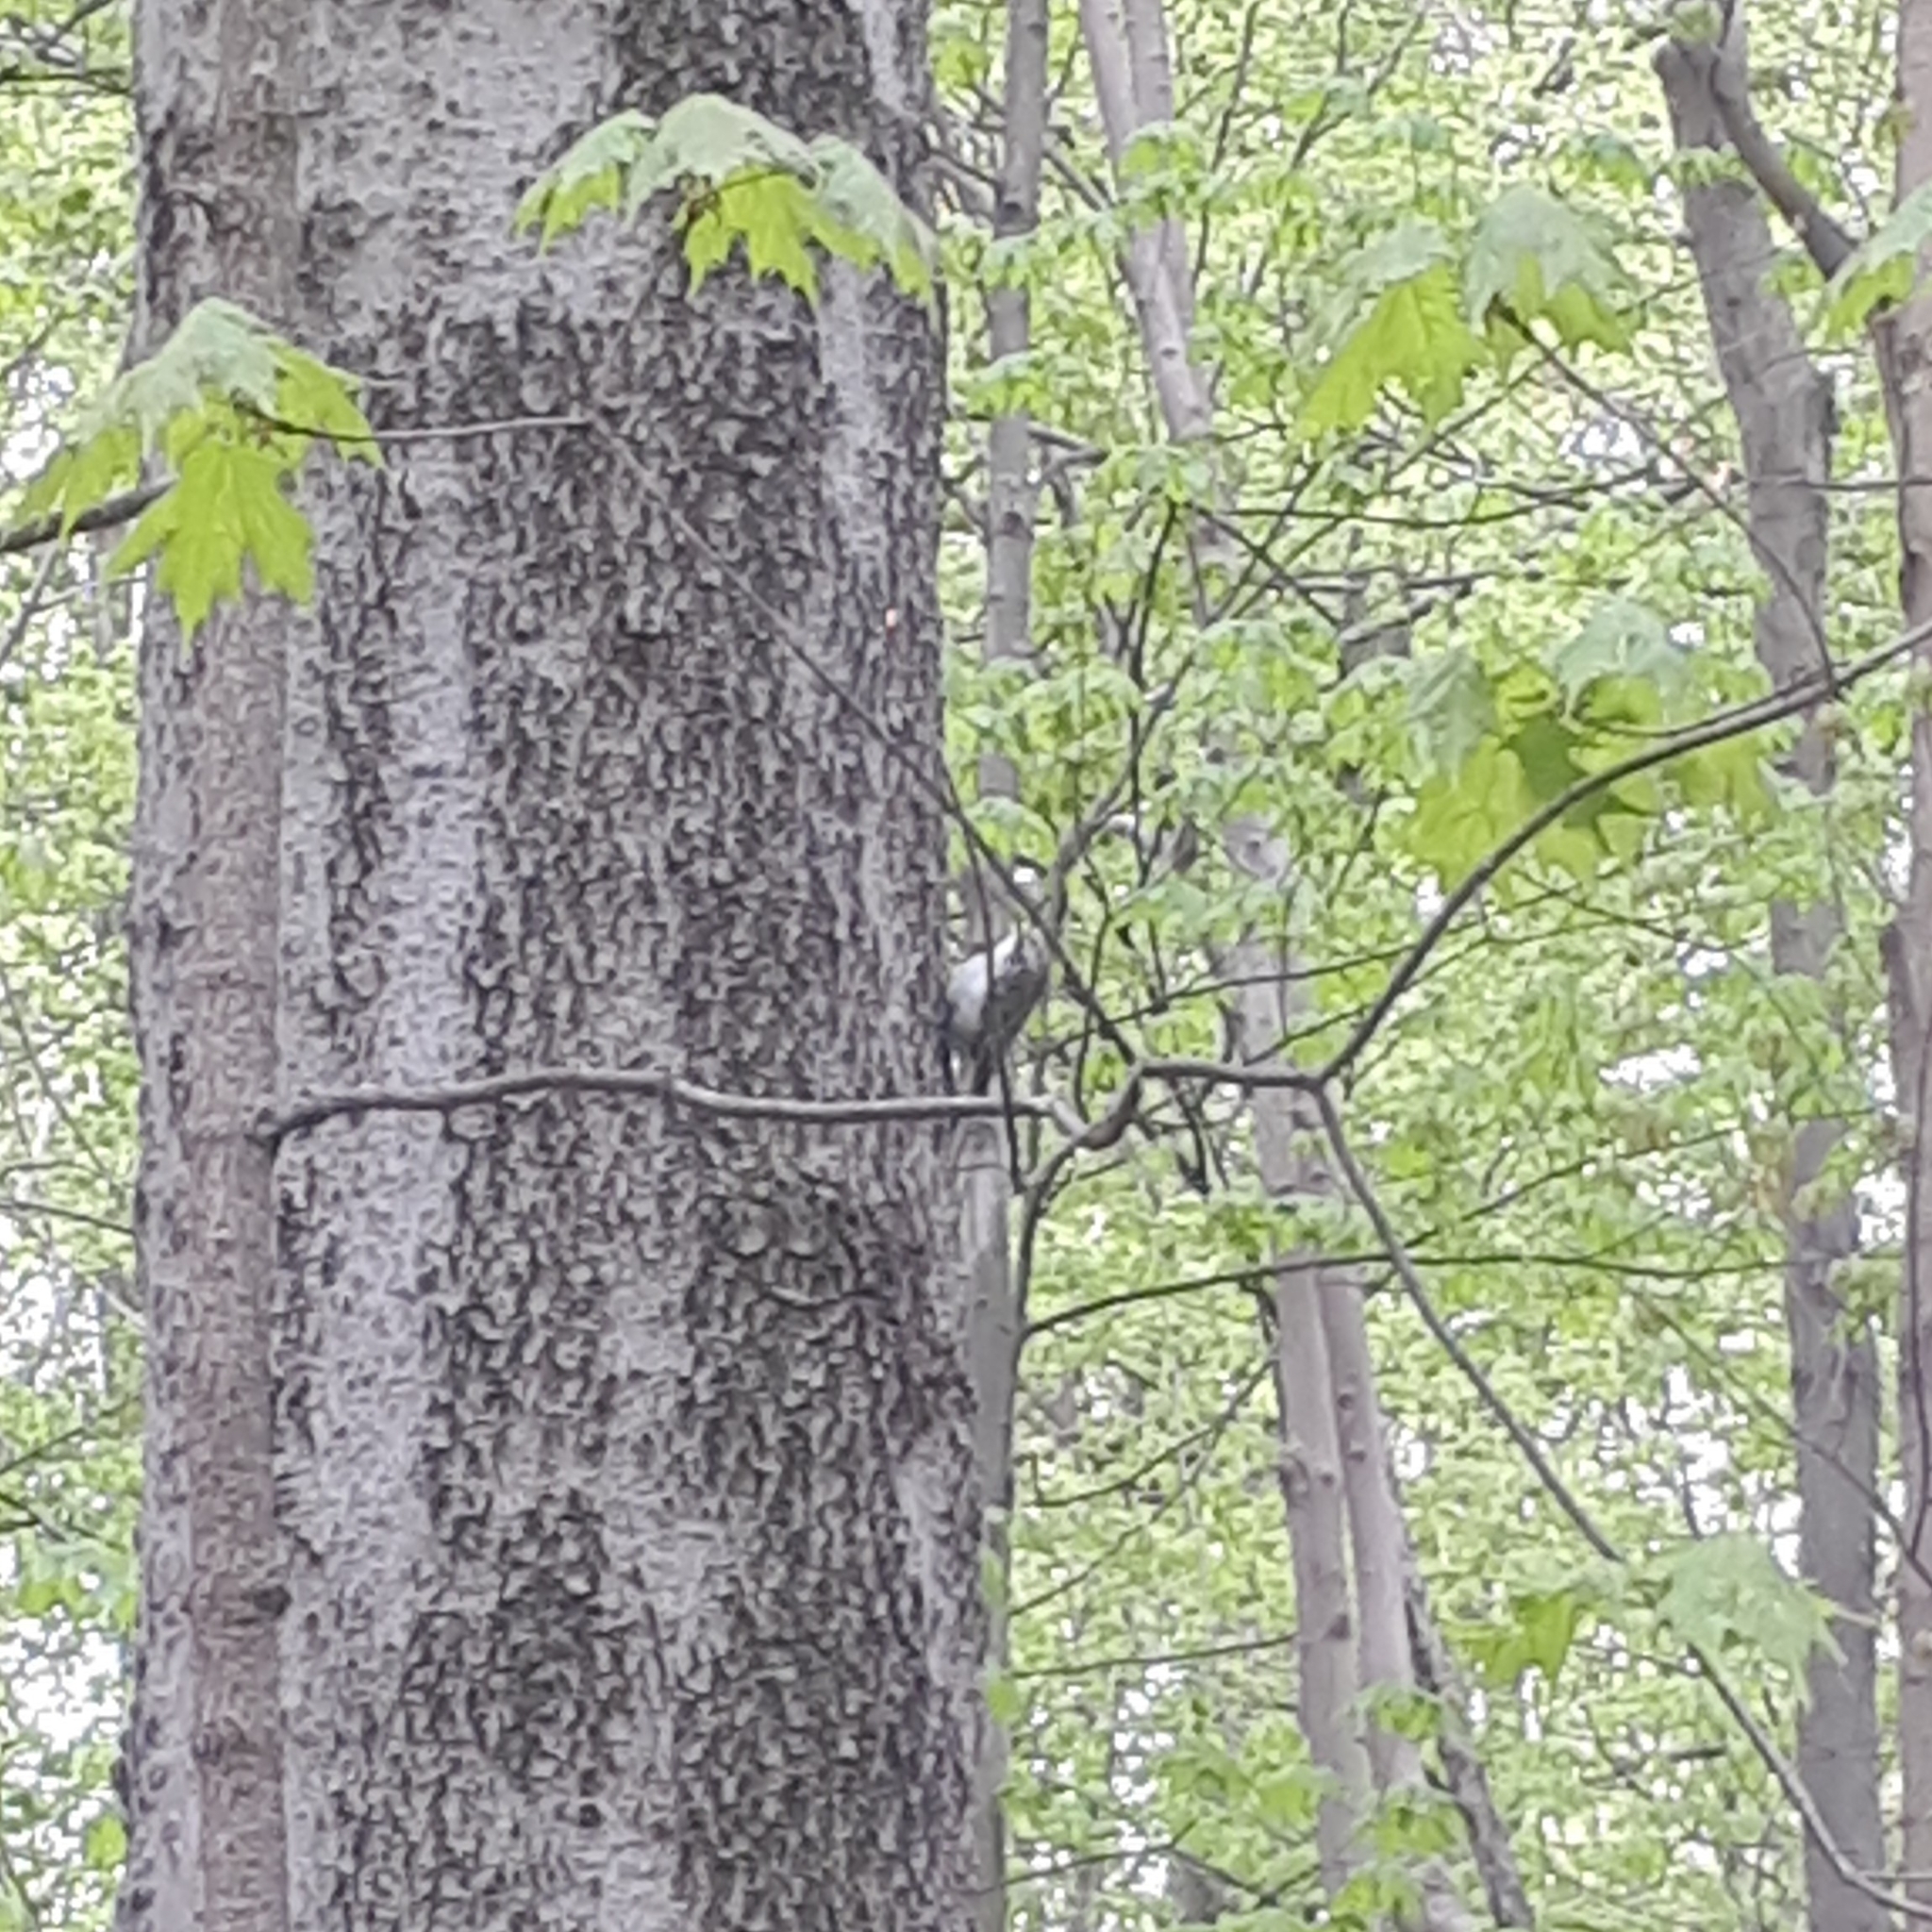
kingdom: Animalia
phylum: Chordata
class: Aves
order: Passeriformes
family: Certhiidae
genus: Certhia
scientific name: Certhia americana
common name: Brown creeper
